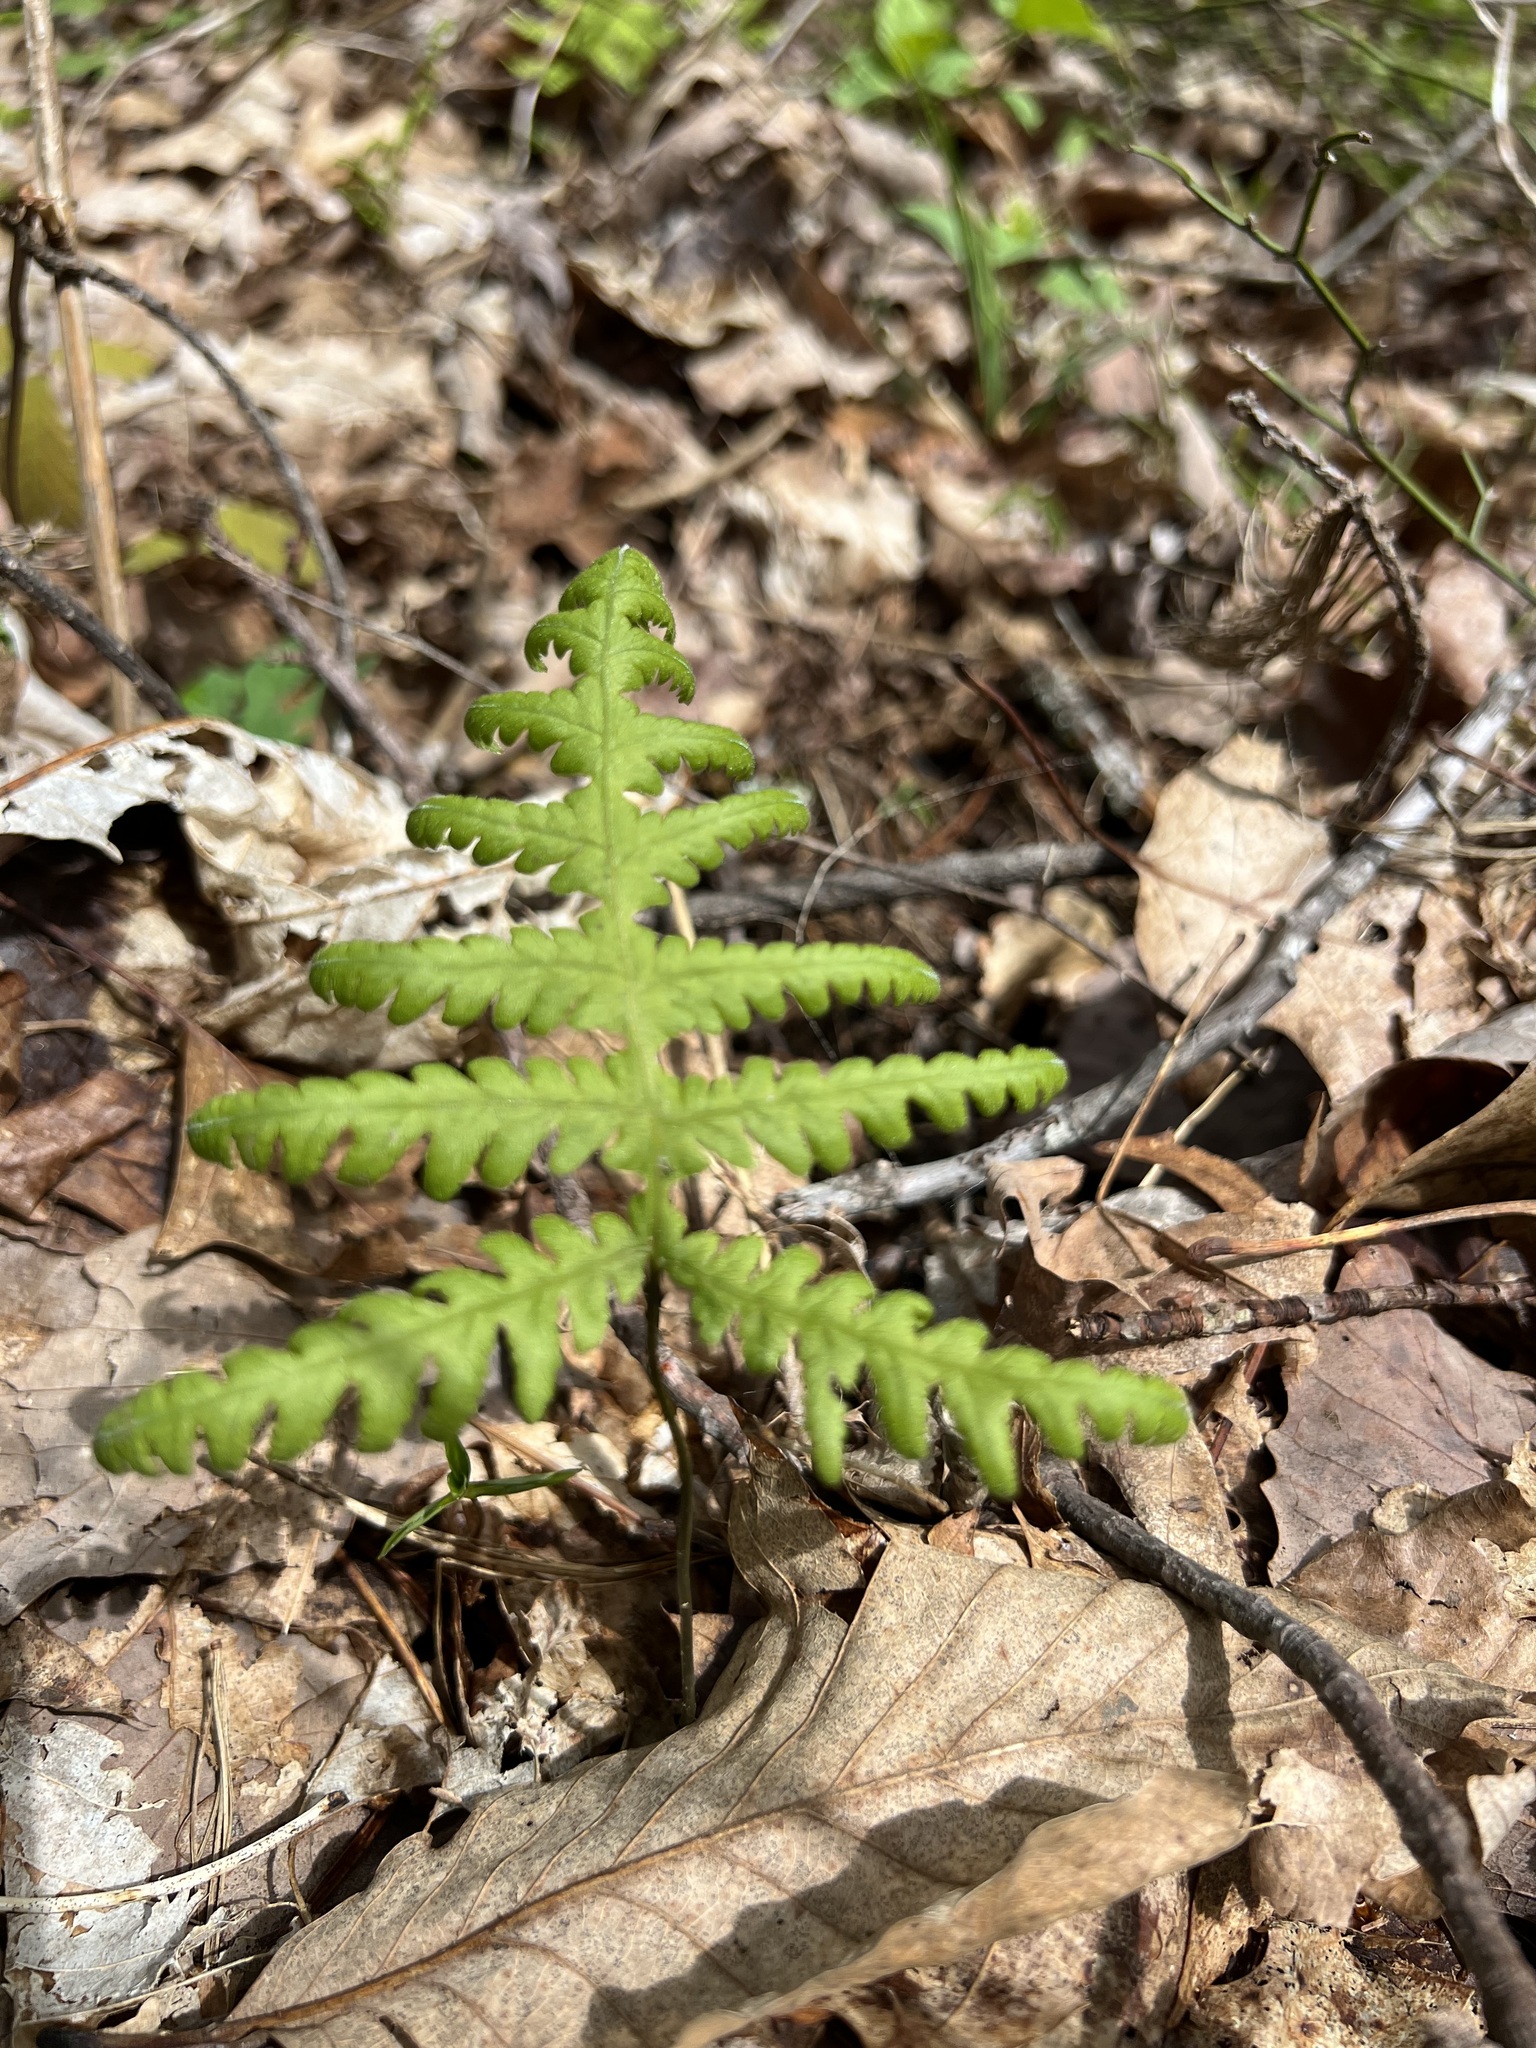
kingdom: Plantae
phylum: Tracheophyta
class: Polypodiopsida
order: Polypodiales
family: Thelypteridaceae
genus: Phegopteris
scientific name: Phegopteris hexagonoptera
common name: Broad beech fern
